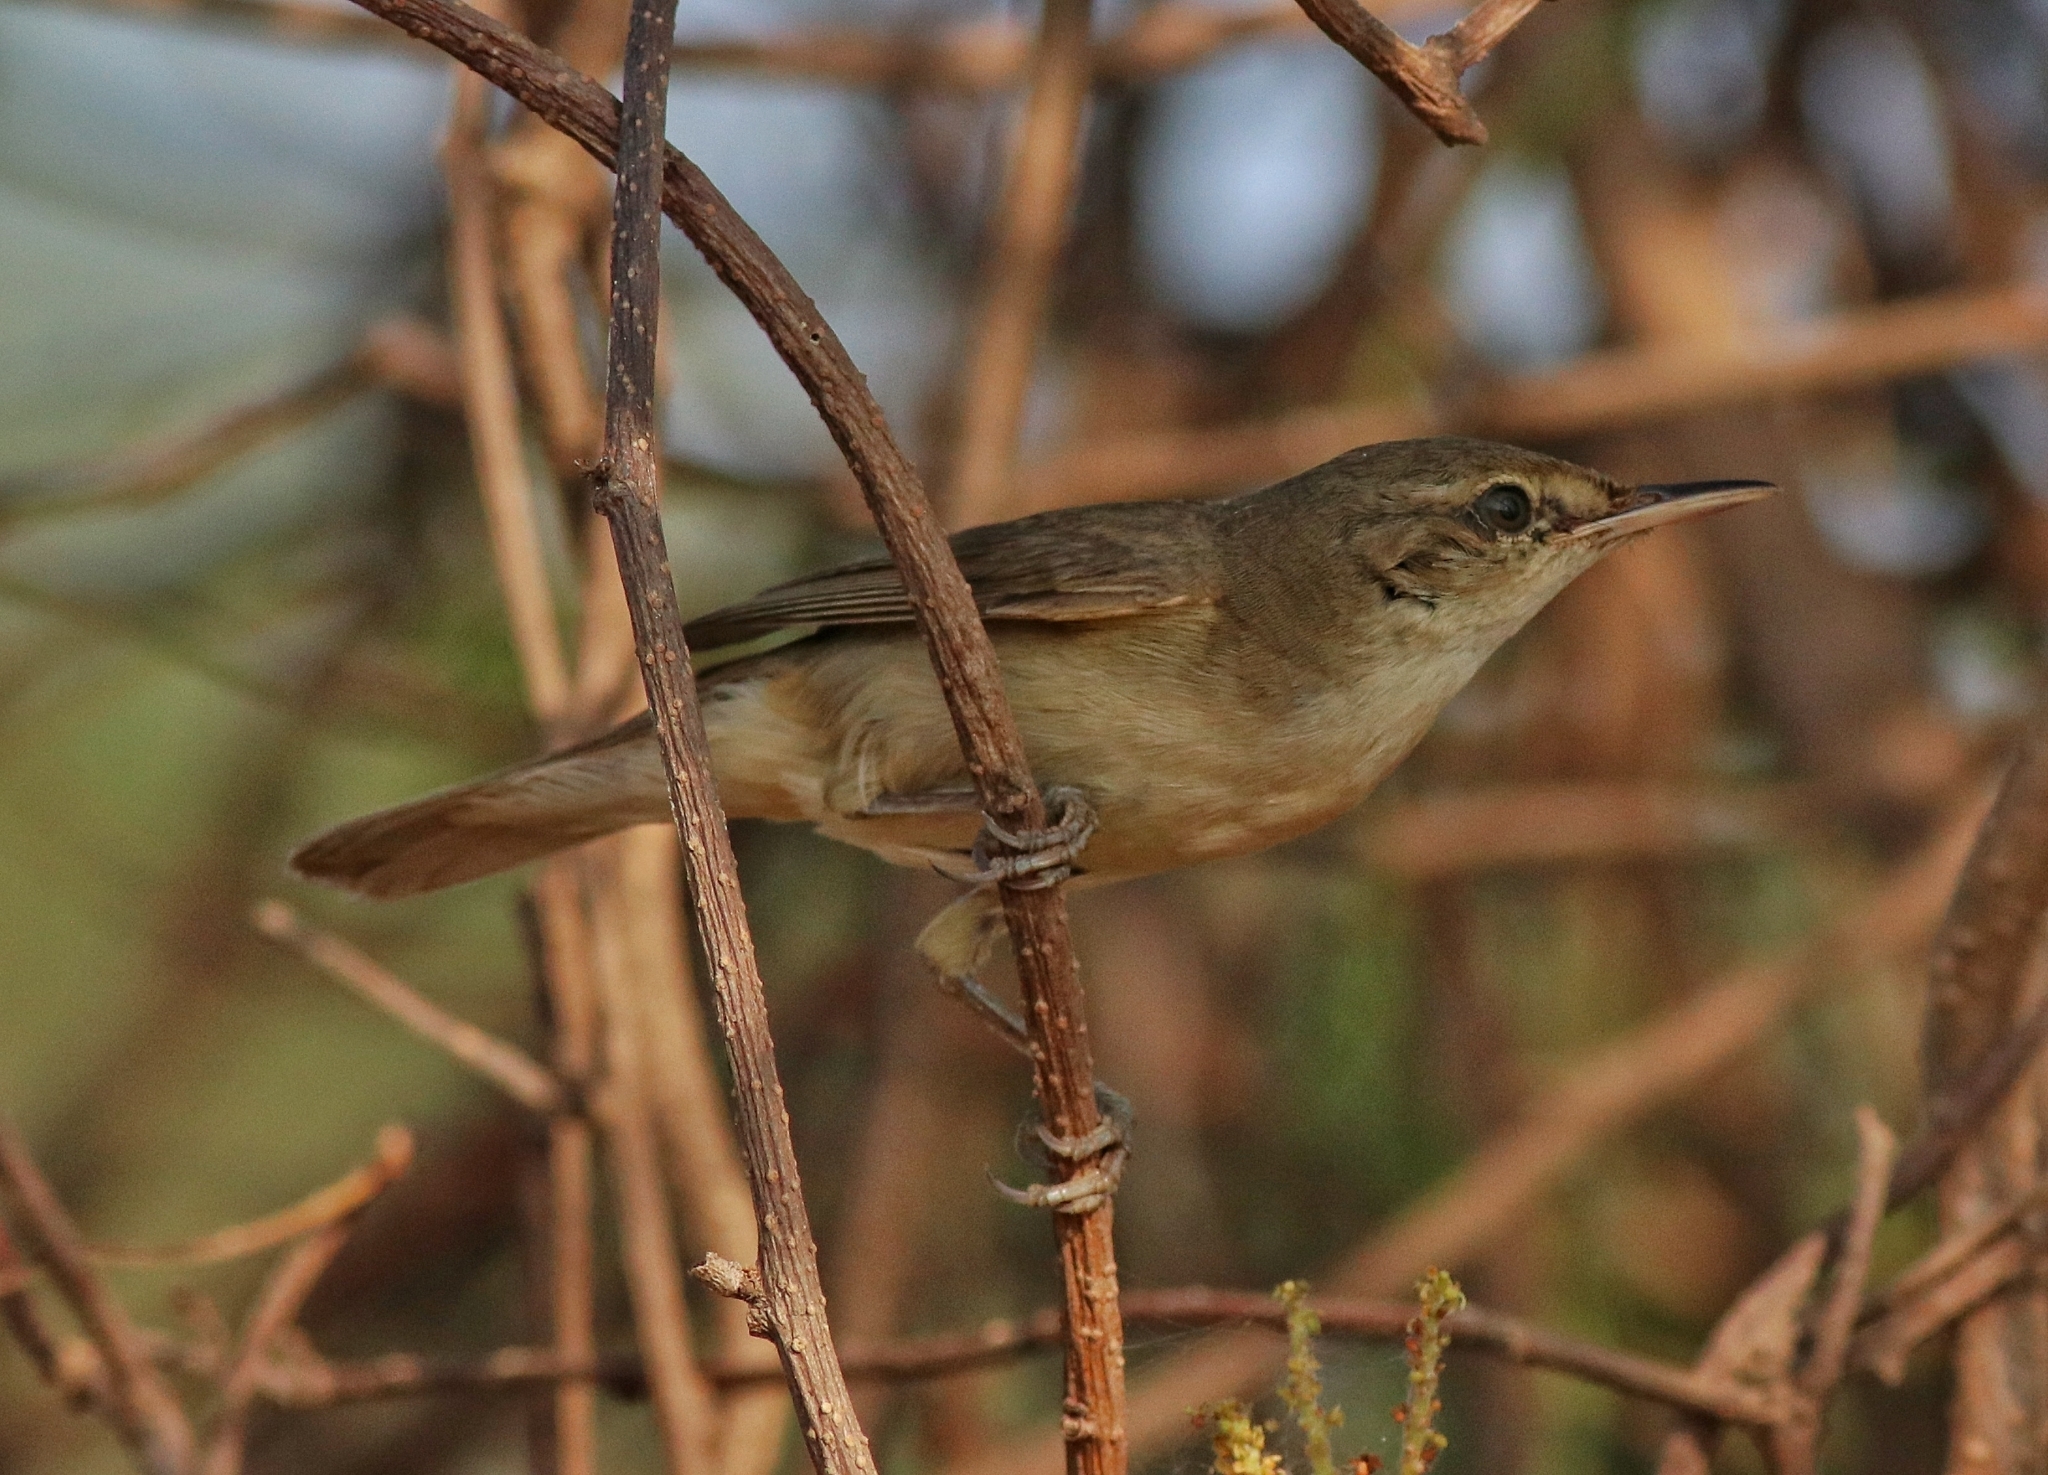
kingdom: Animalia
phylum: Chordata
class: Aves
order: Passeriformes
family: Acrocephalidae
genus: Acrocephalus
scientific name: Acrocephalus dumetorum
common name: Blyth's reed warbler
